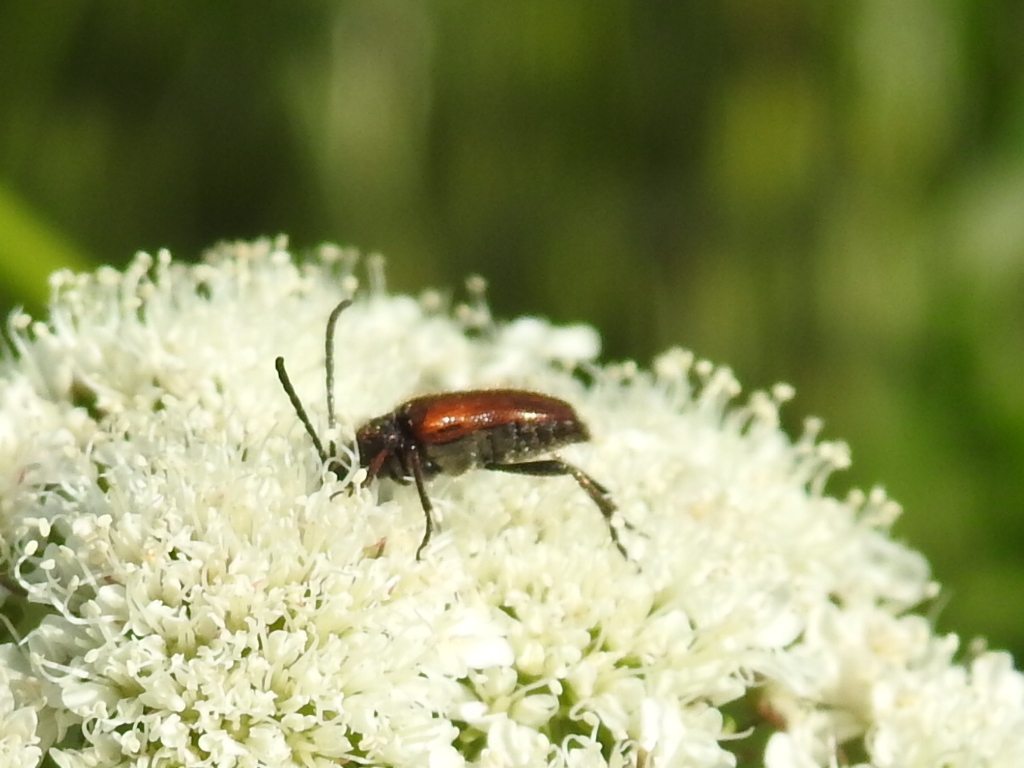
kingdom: Animalia
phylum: Arthropoda
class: Insecta
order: Coleoptera
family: Cerambycidae
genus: Pseudovadonia
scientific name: Pseudovadonia livida
